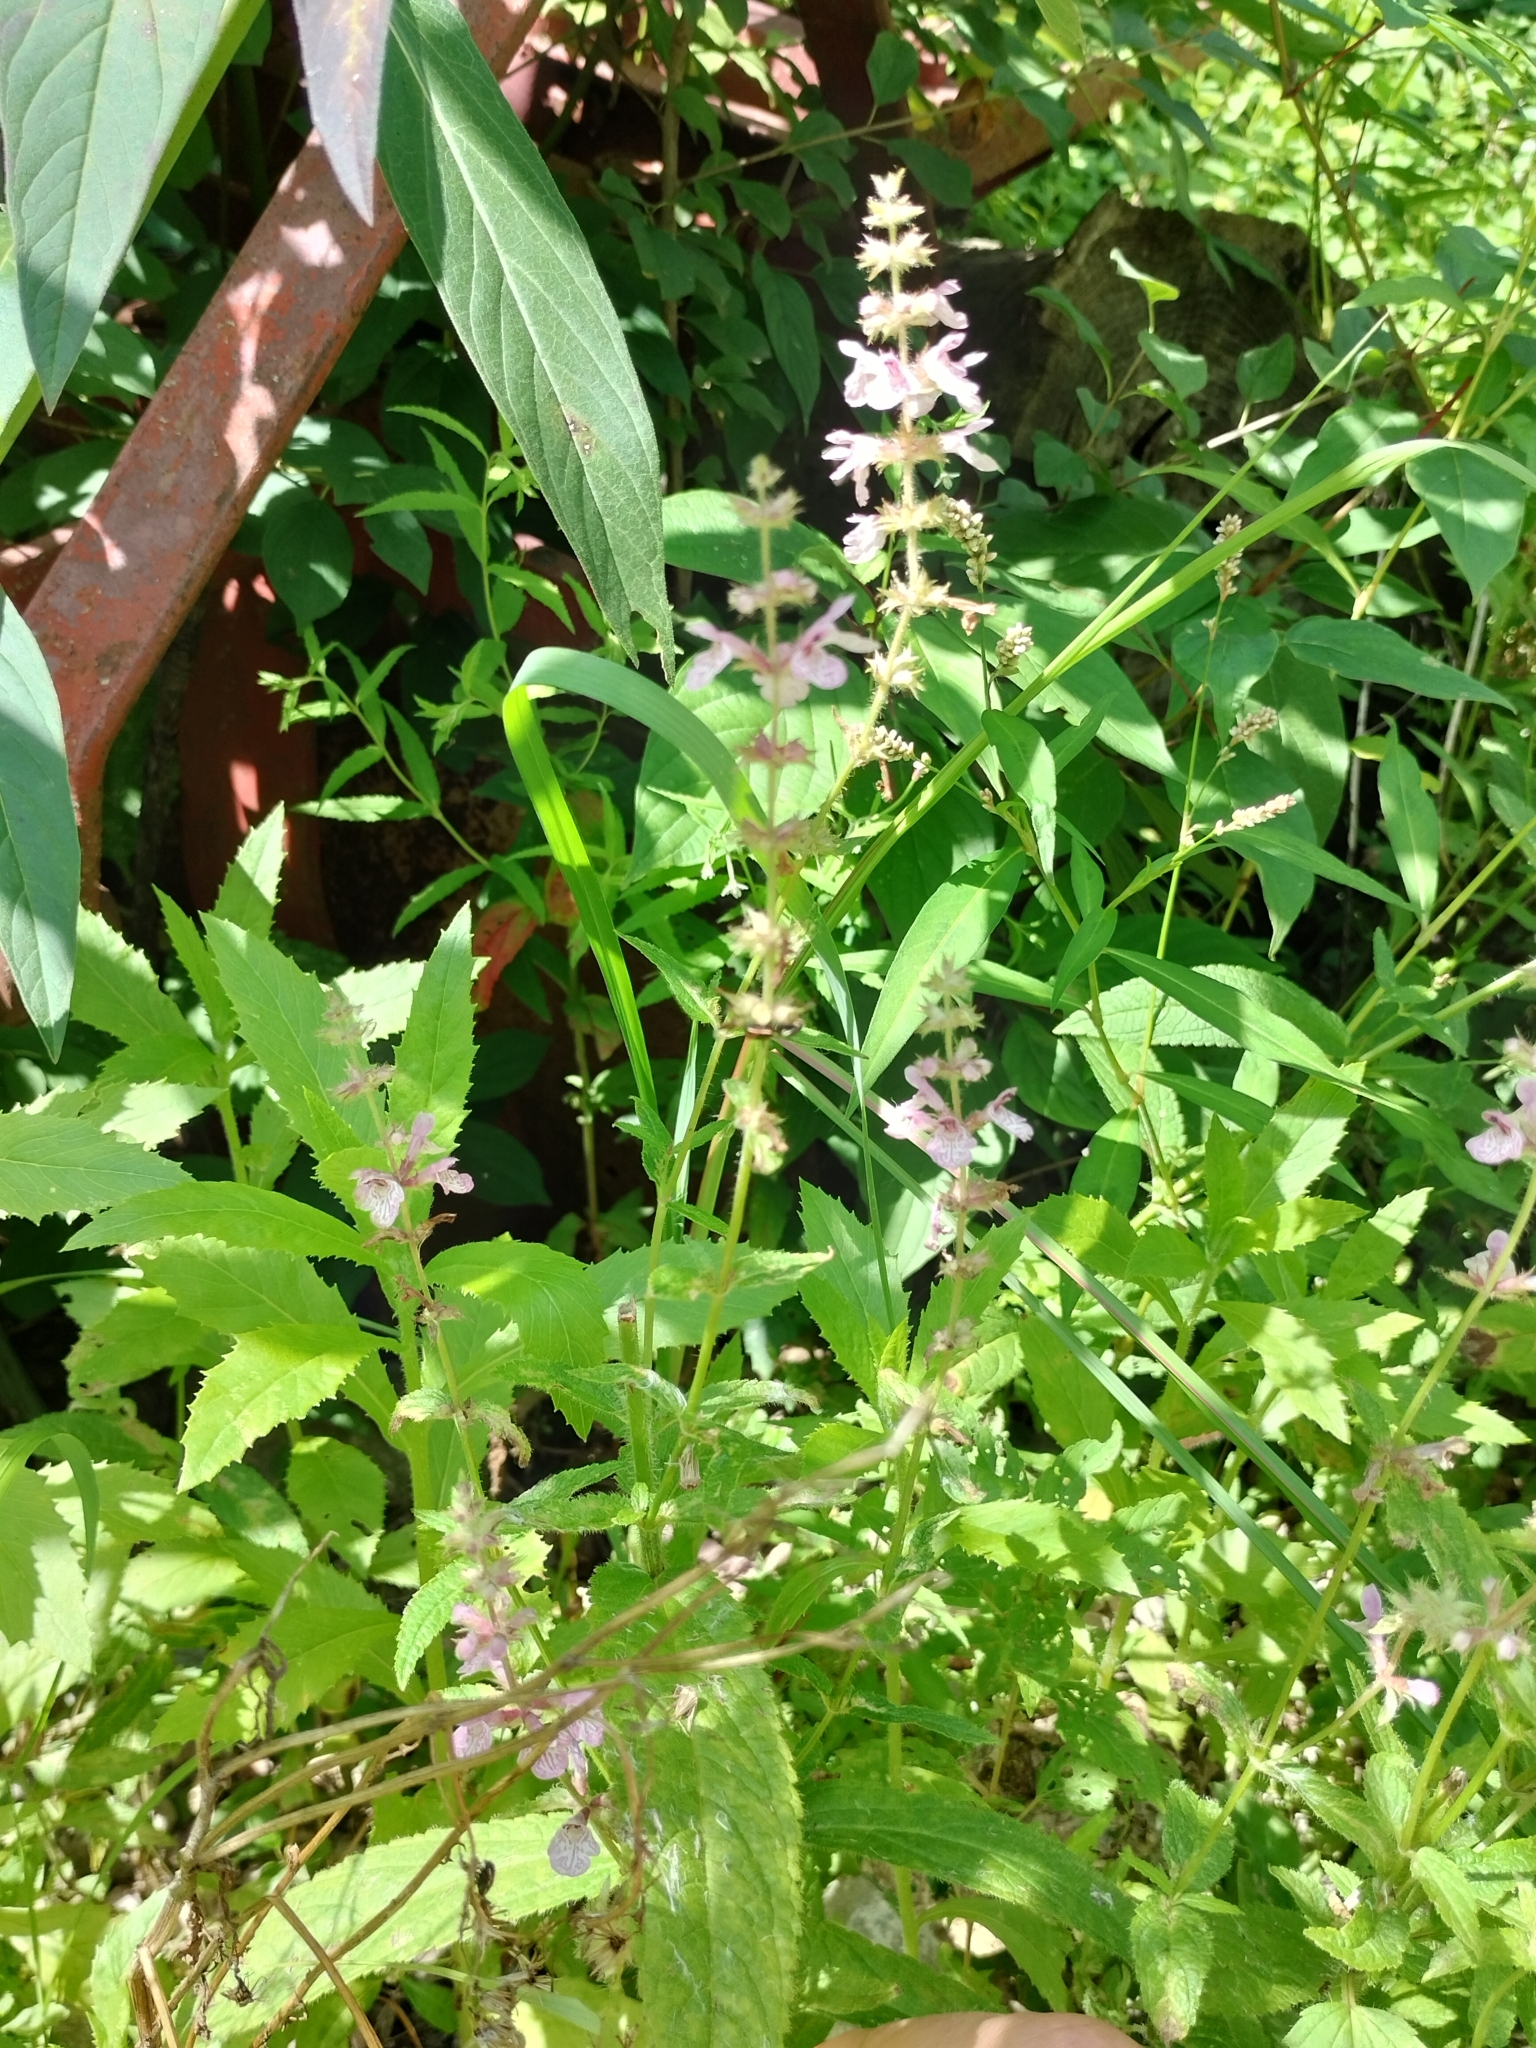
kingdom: Plantae
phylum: Tracheophyta
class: Magnoliopsida
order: Lamiales
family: Lamiaceae
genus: Stachys
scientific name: Stachys hispida
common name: Hispid hedge-nettle
